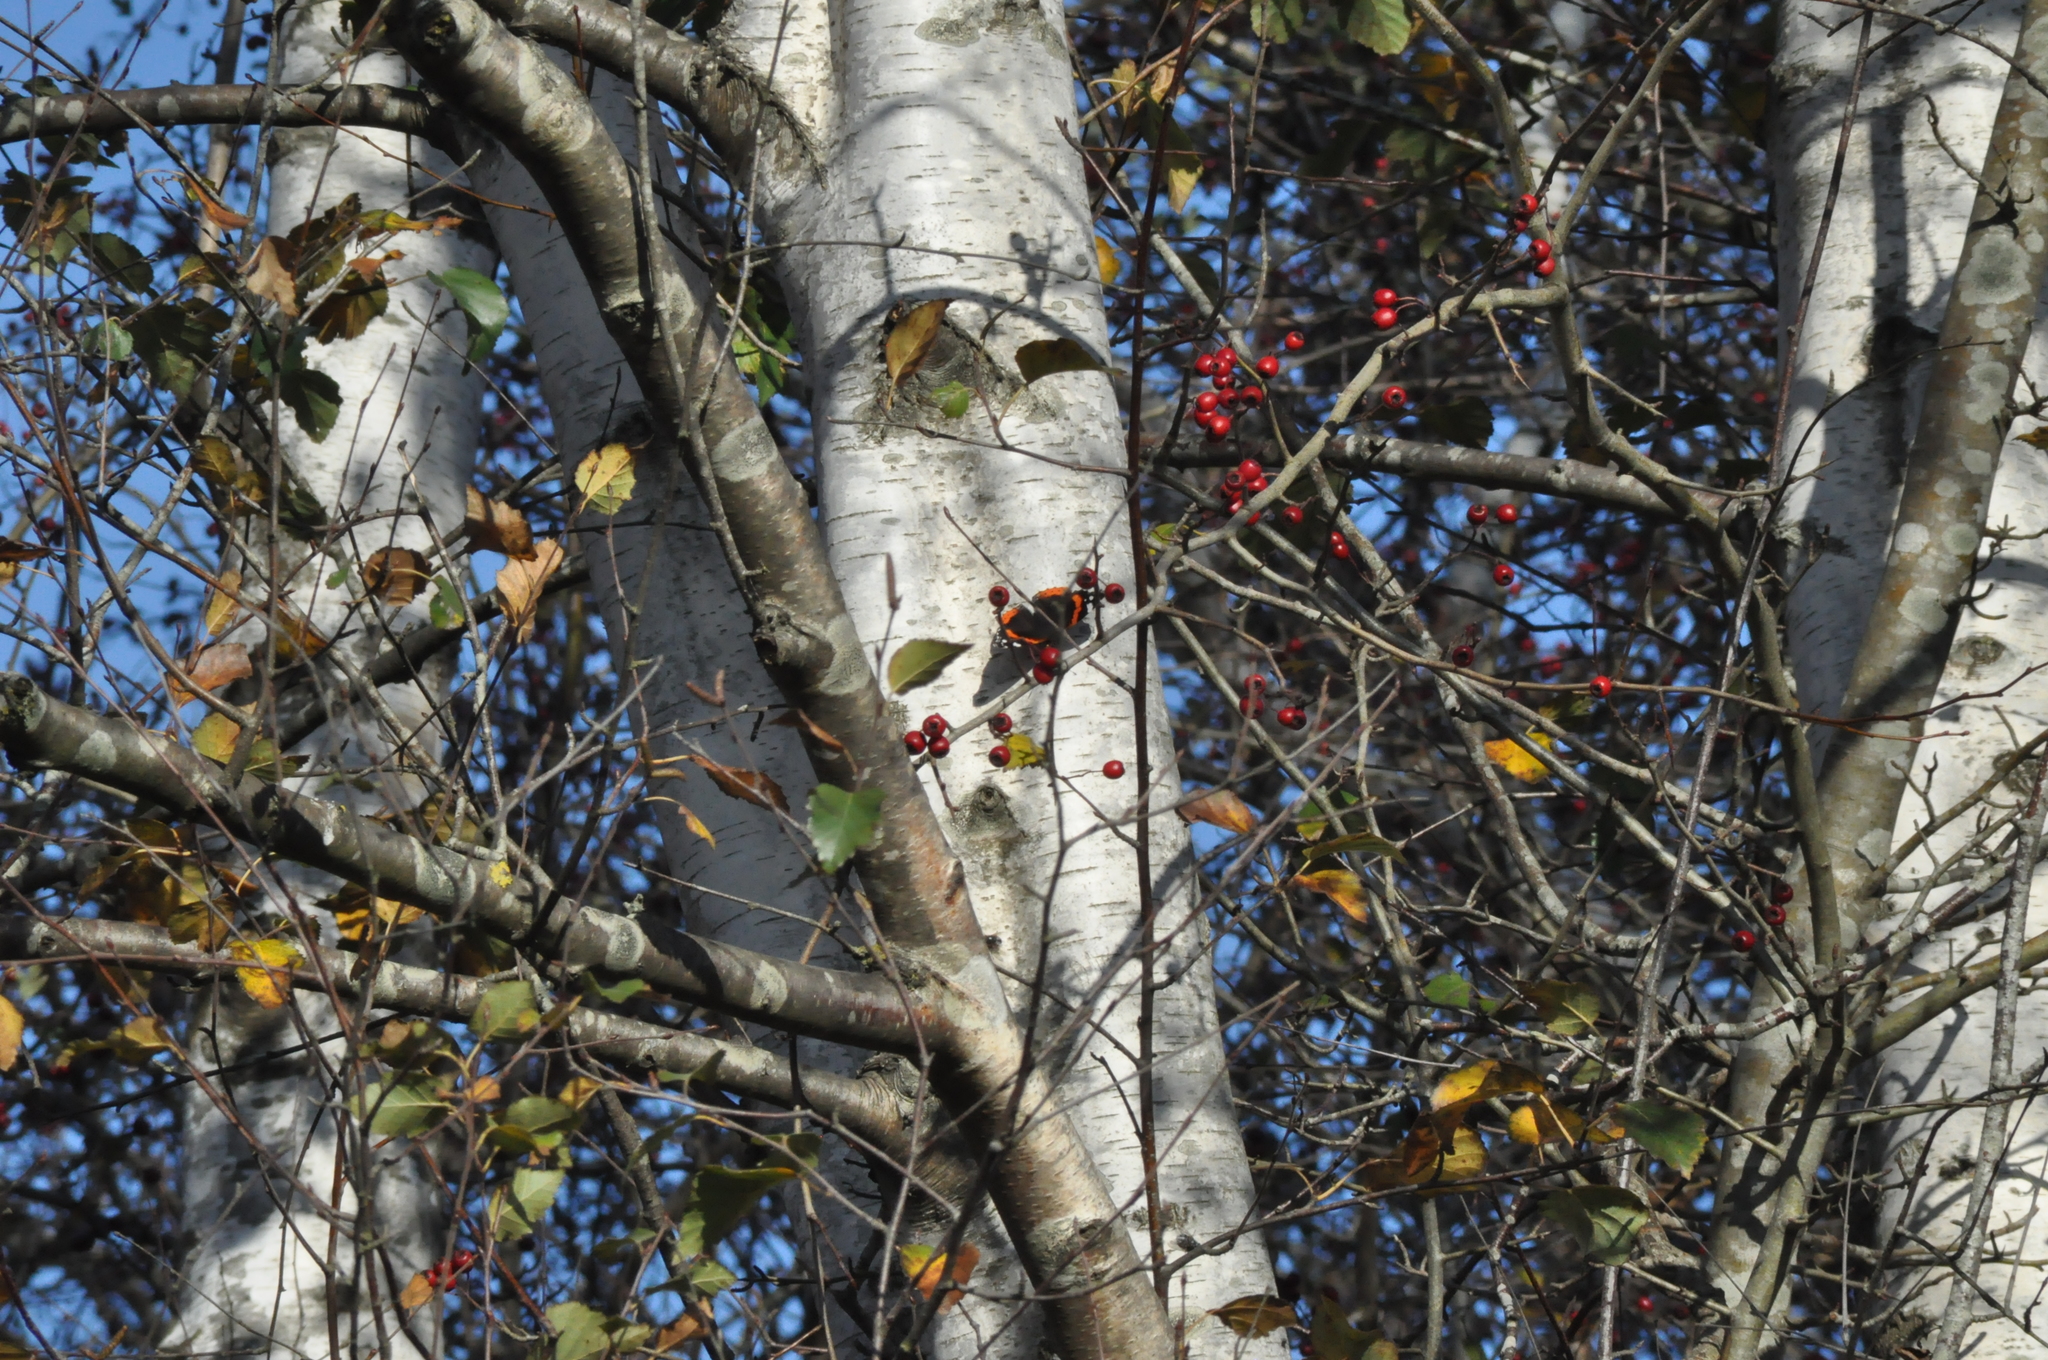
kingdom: Animalia
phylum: Arthropoda
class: Insecta
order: Lepidoptera
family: Nymphalidae
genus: Vanessa
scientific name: Vanessa atalanta
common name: Red admiral
